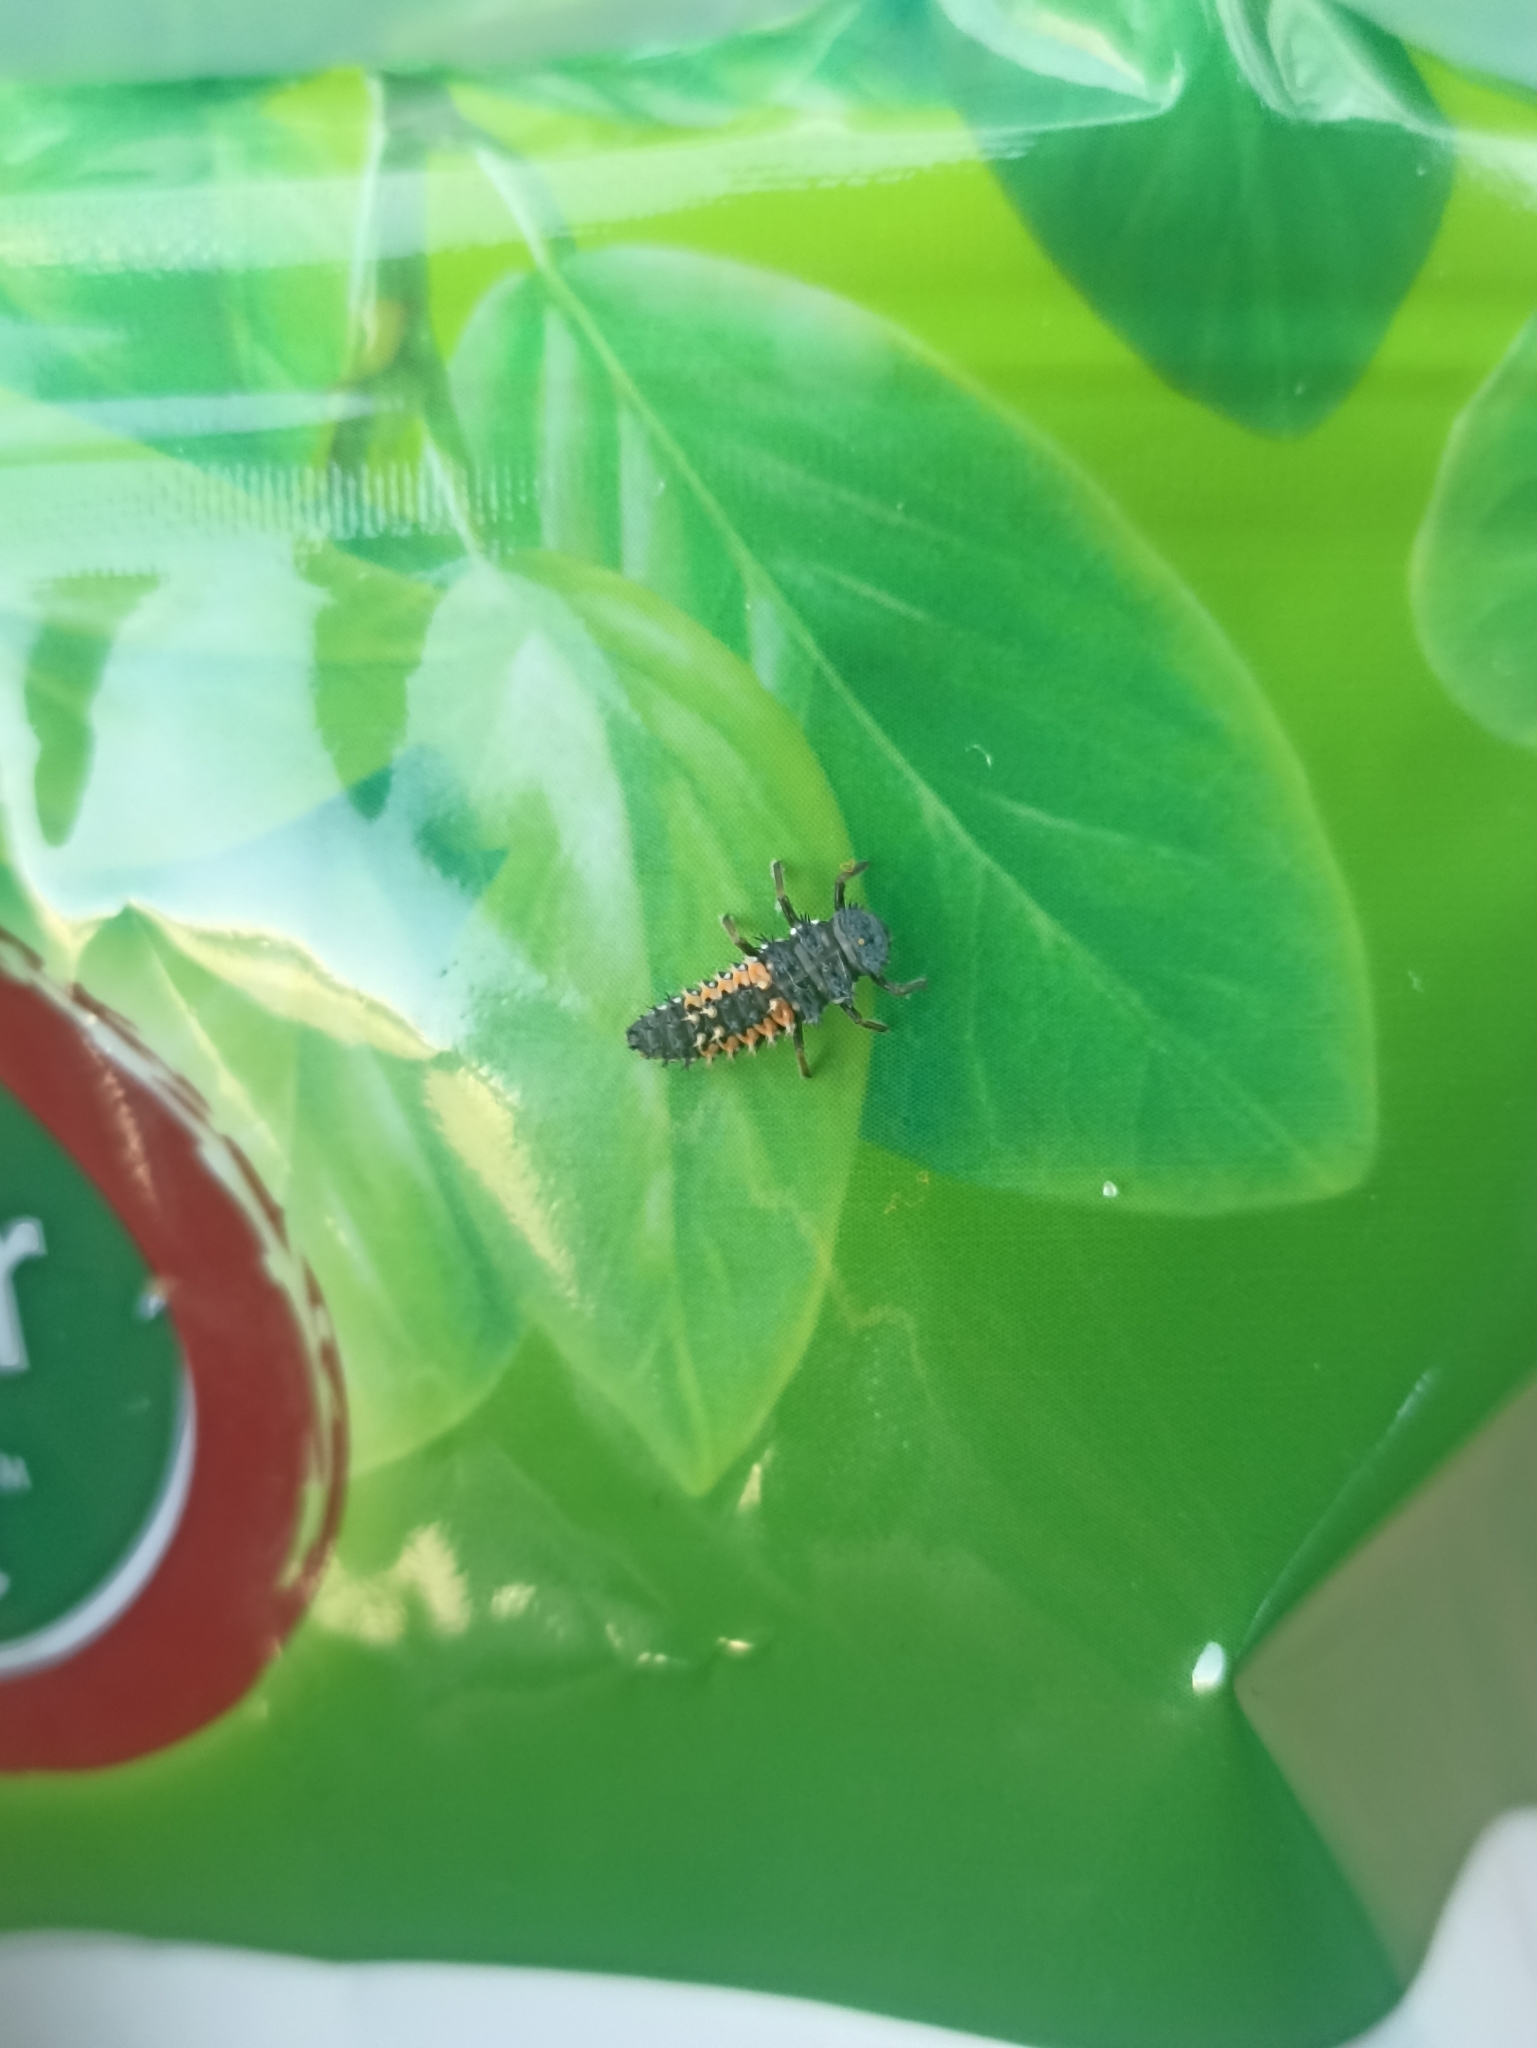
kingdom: Animalia
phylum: Arthropoda
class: Insecta
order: Coleoptera
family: Coccinellidae
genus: Harmonia
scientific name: Harmonia axyridis
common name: Harlequin ladybird
